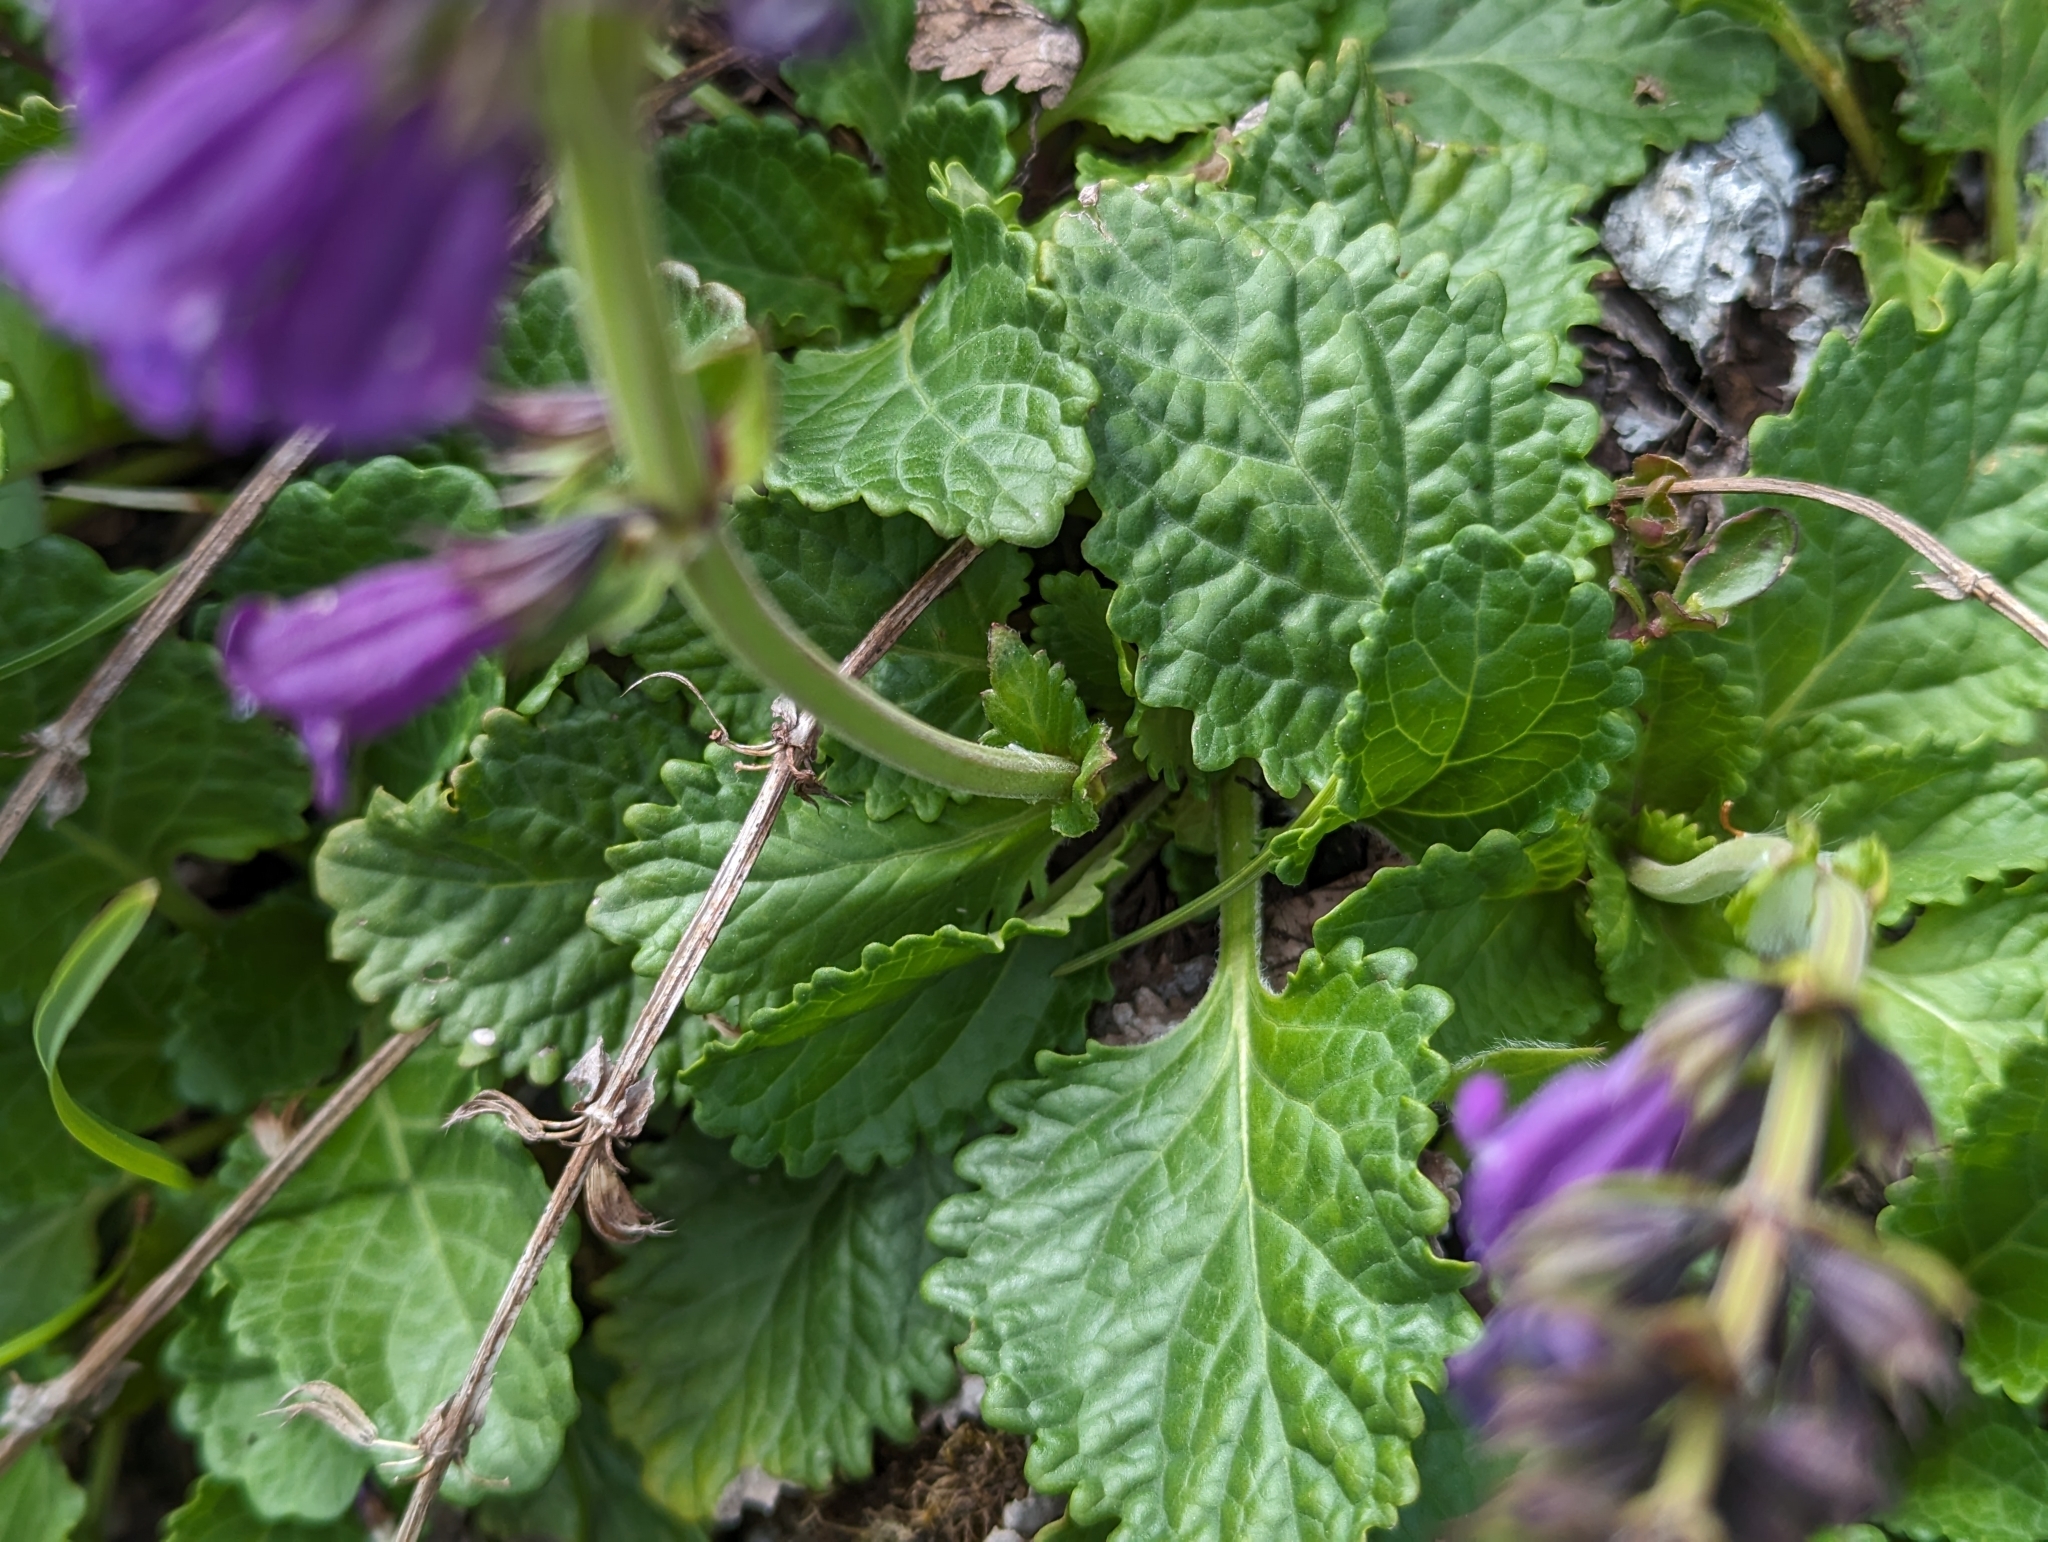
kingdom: Plantae
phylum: Tracheophyta
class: Magnoliopsida
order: Lamiales
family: Lamiaceae
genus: Horminum
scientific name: Horminum pyrenaicum
